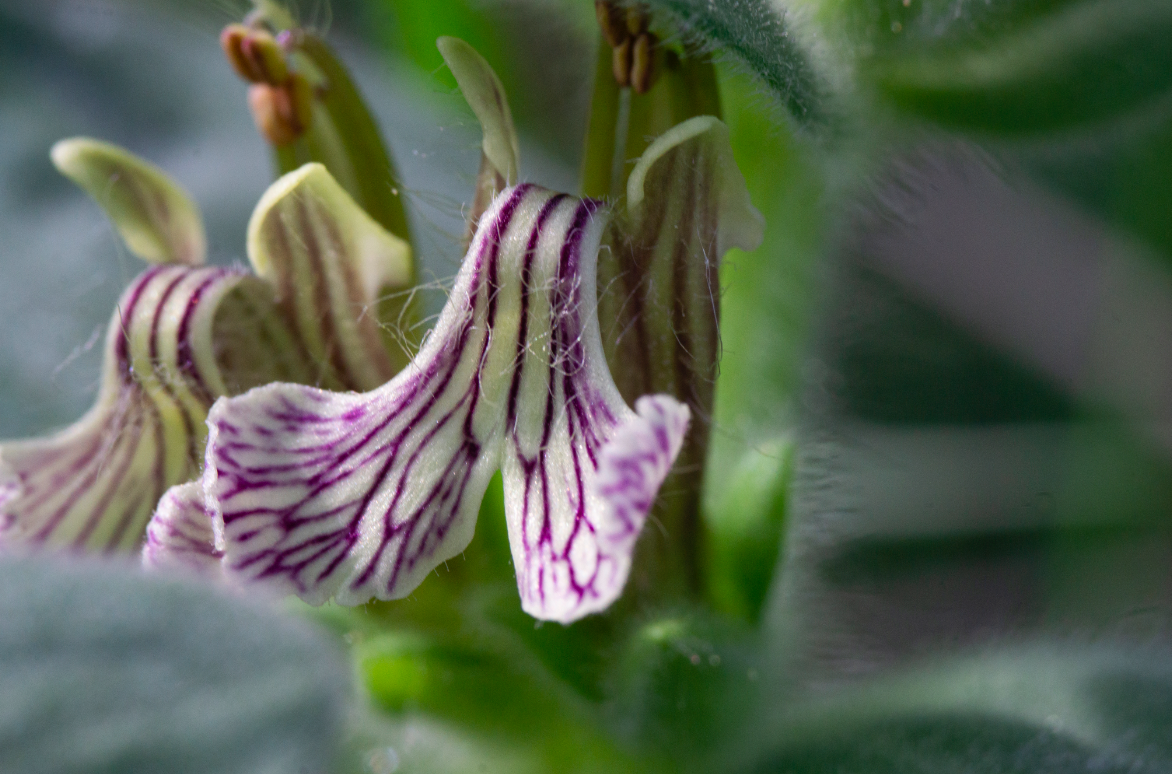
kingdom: Plantae
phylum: Tracheophyta
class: Magnoliopsida
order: Lamiales
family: Lamiaceae
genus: Ajuga
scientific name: Ajuga laxmannii
